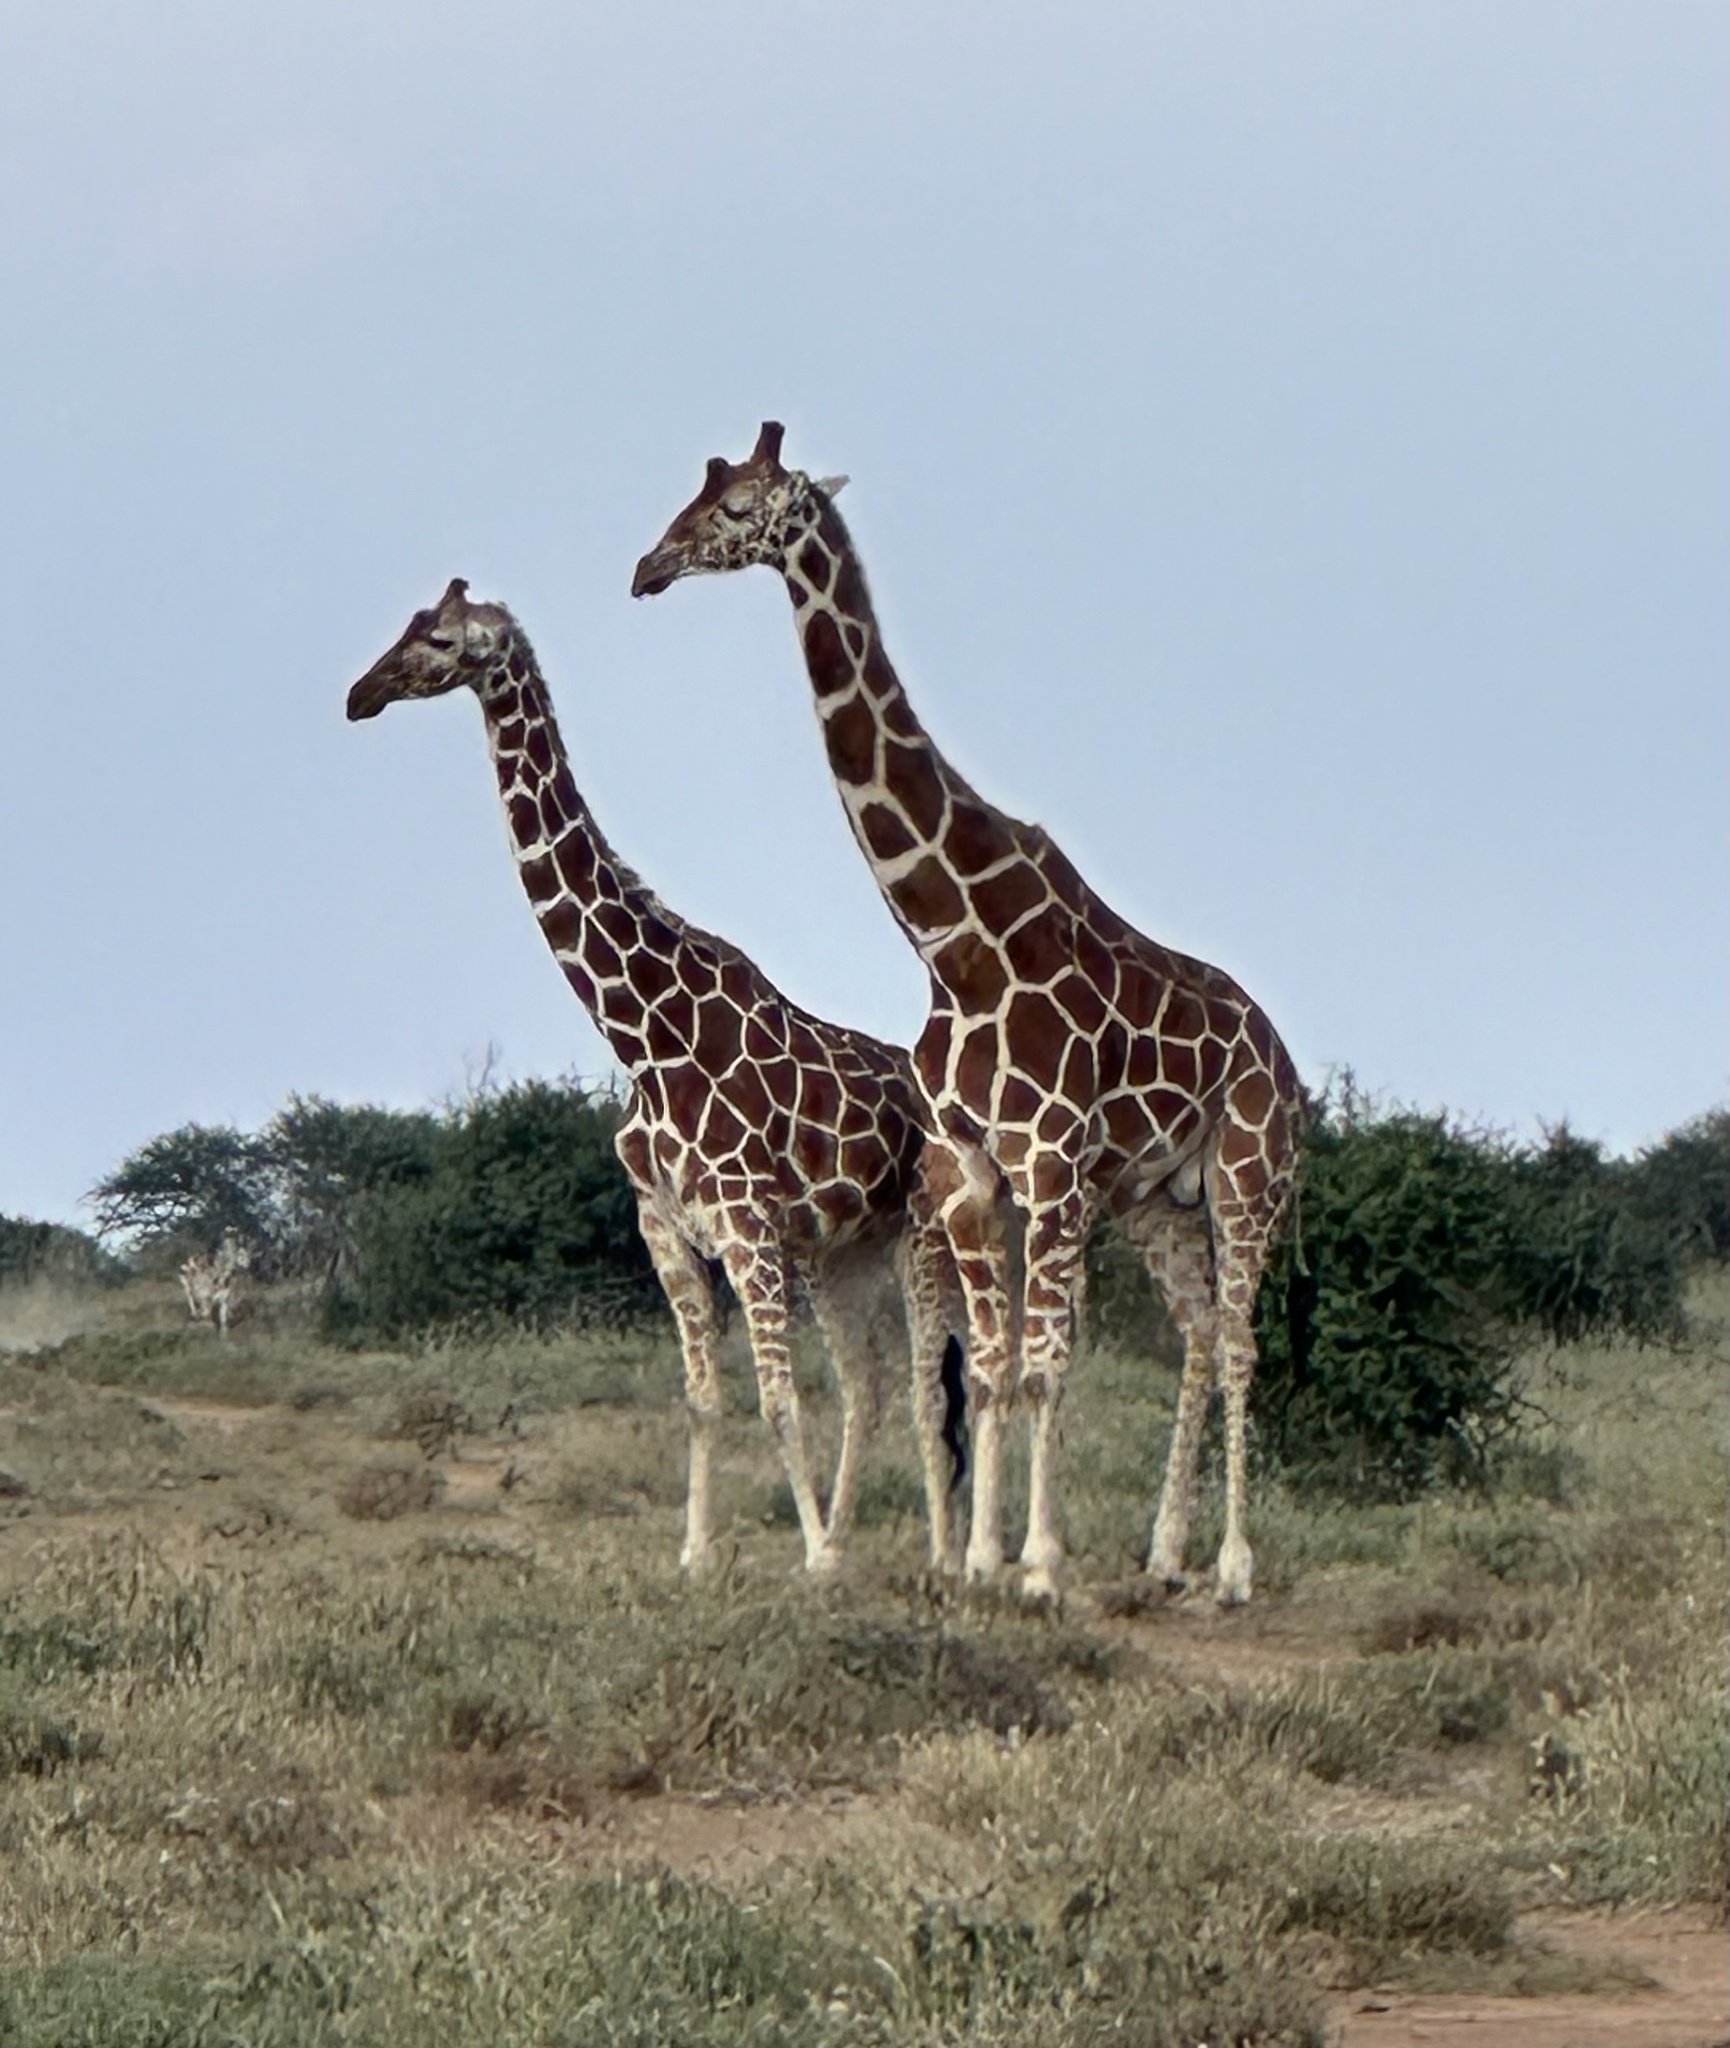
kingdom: Animalia
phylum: Chordata
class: Mammalia
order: Artiodactyla
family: Giraffidae
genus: Giraffa
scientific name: Giraffa reticulata
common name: Reticulated giraffe
